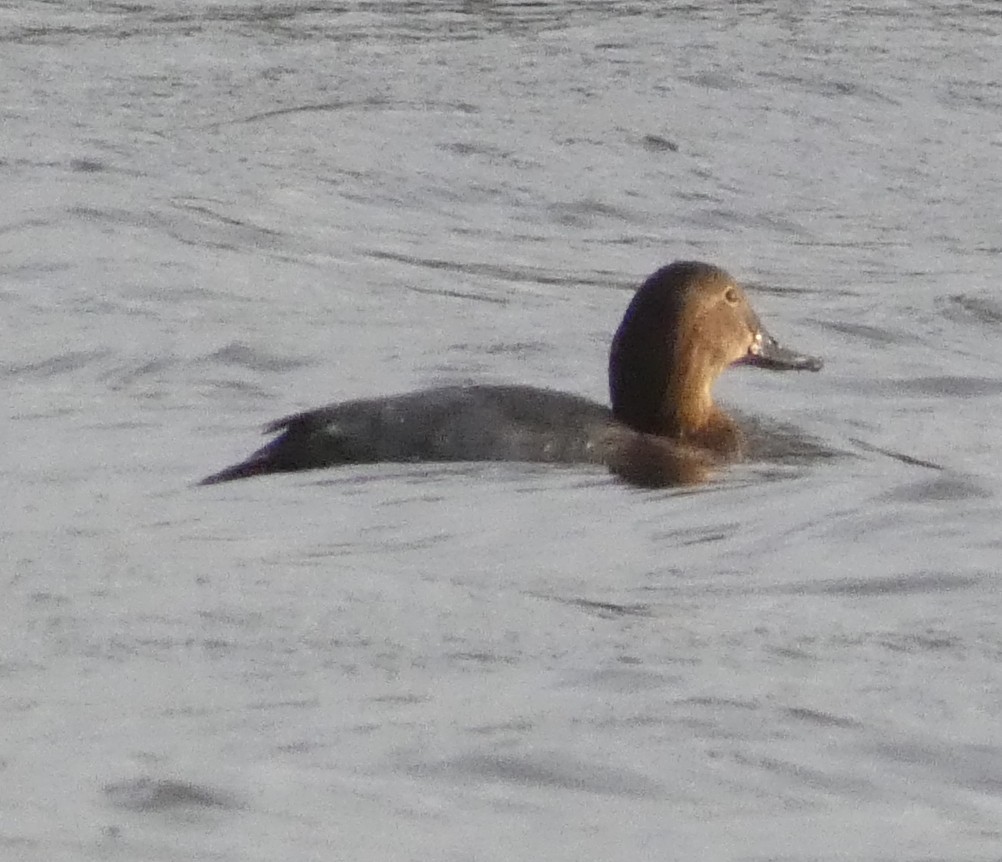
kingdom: Animalia
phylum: Chordata
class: Aves
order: Anseriformes
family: Anatidae
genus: Aythya
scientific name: Aythya ferina
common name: Common pochard
